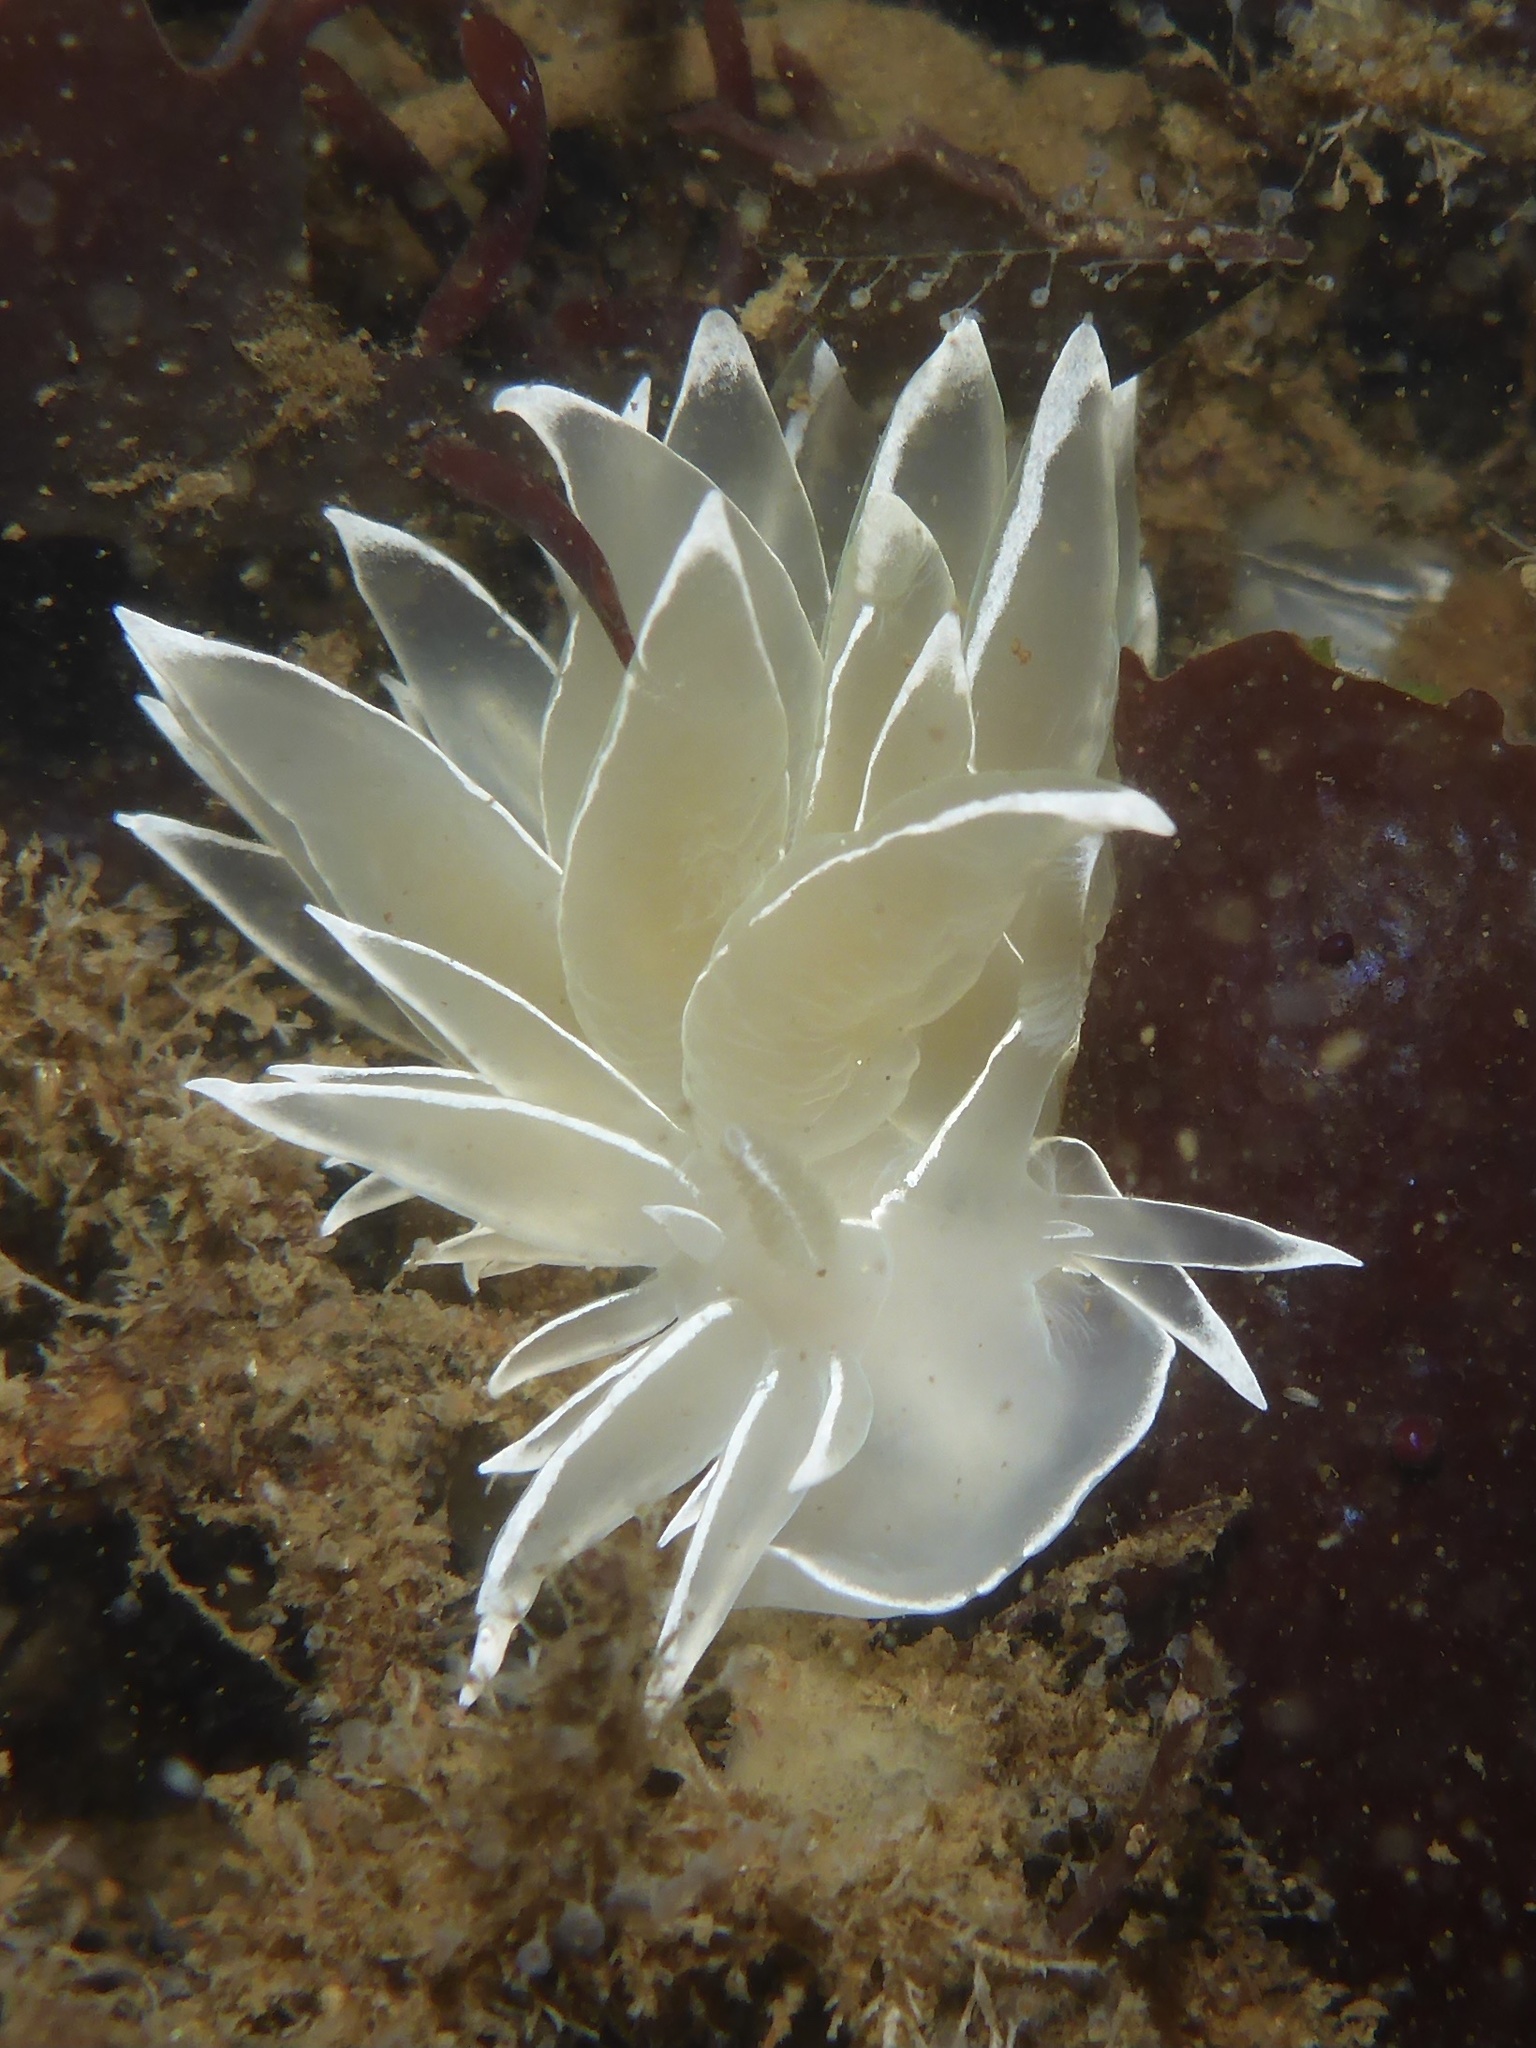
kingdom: Animalia
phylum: Mollusca
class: Gastropoda
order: Nudibranchia
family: Dironidae
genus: Dirona
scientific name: Dirona albolineata
